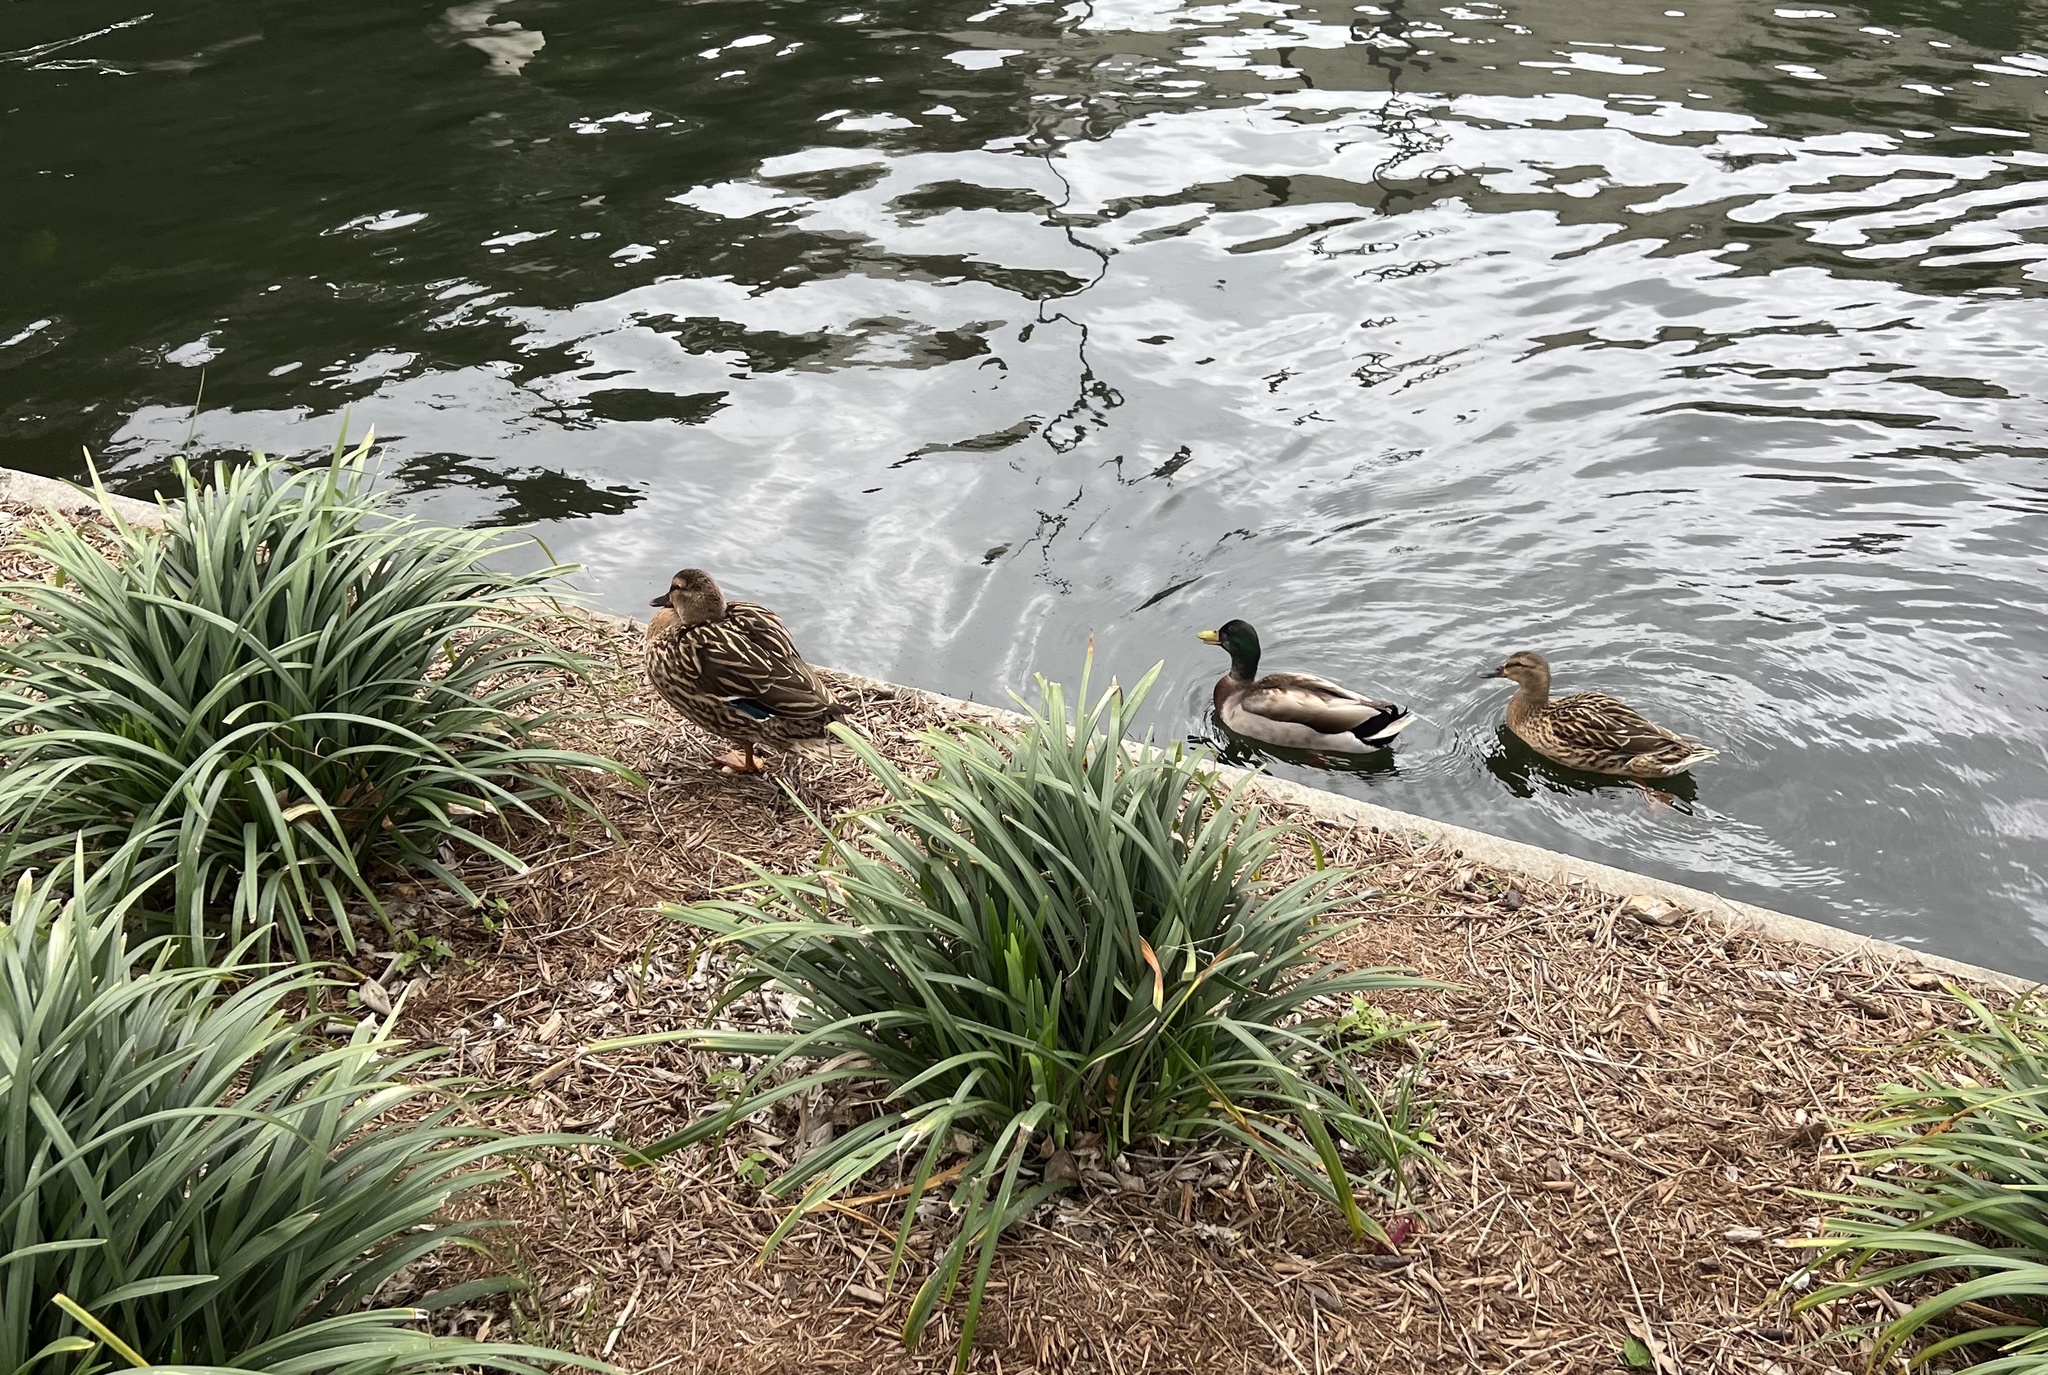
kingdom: Animalia
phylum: Chordata
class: Aves
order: Anseriformes
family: Anatidae
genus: Anas
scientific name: Anas platyrhynchos
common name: Mallard
